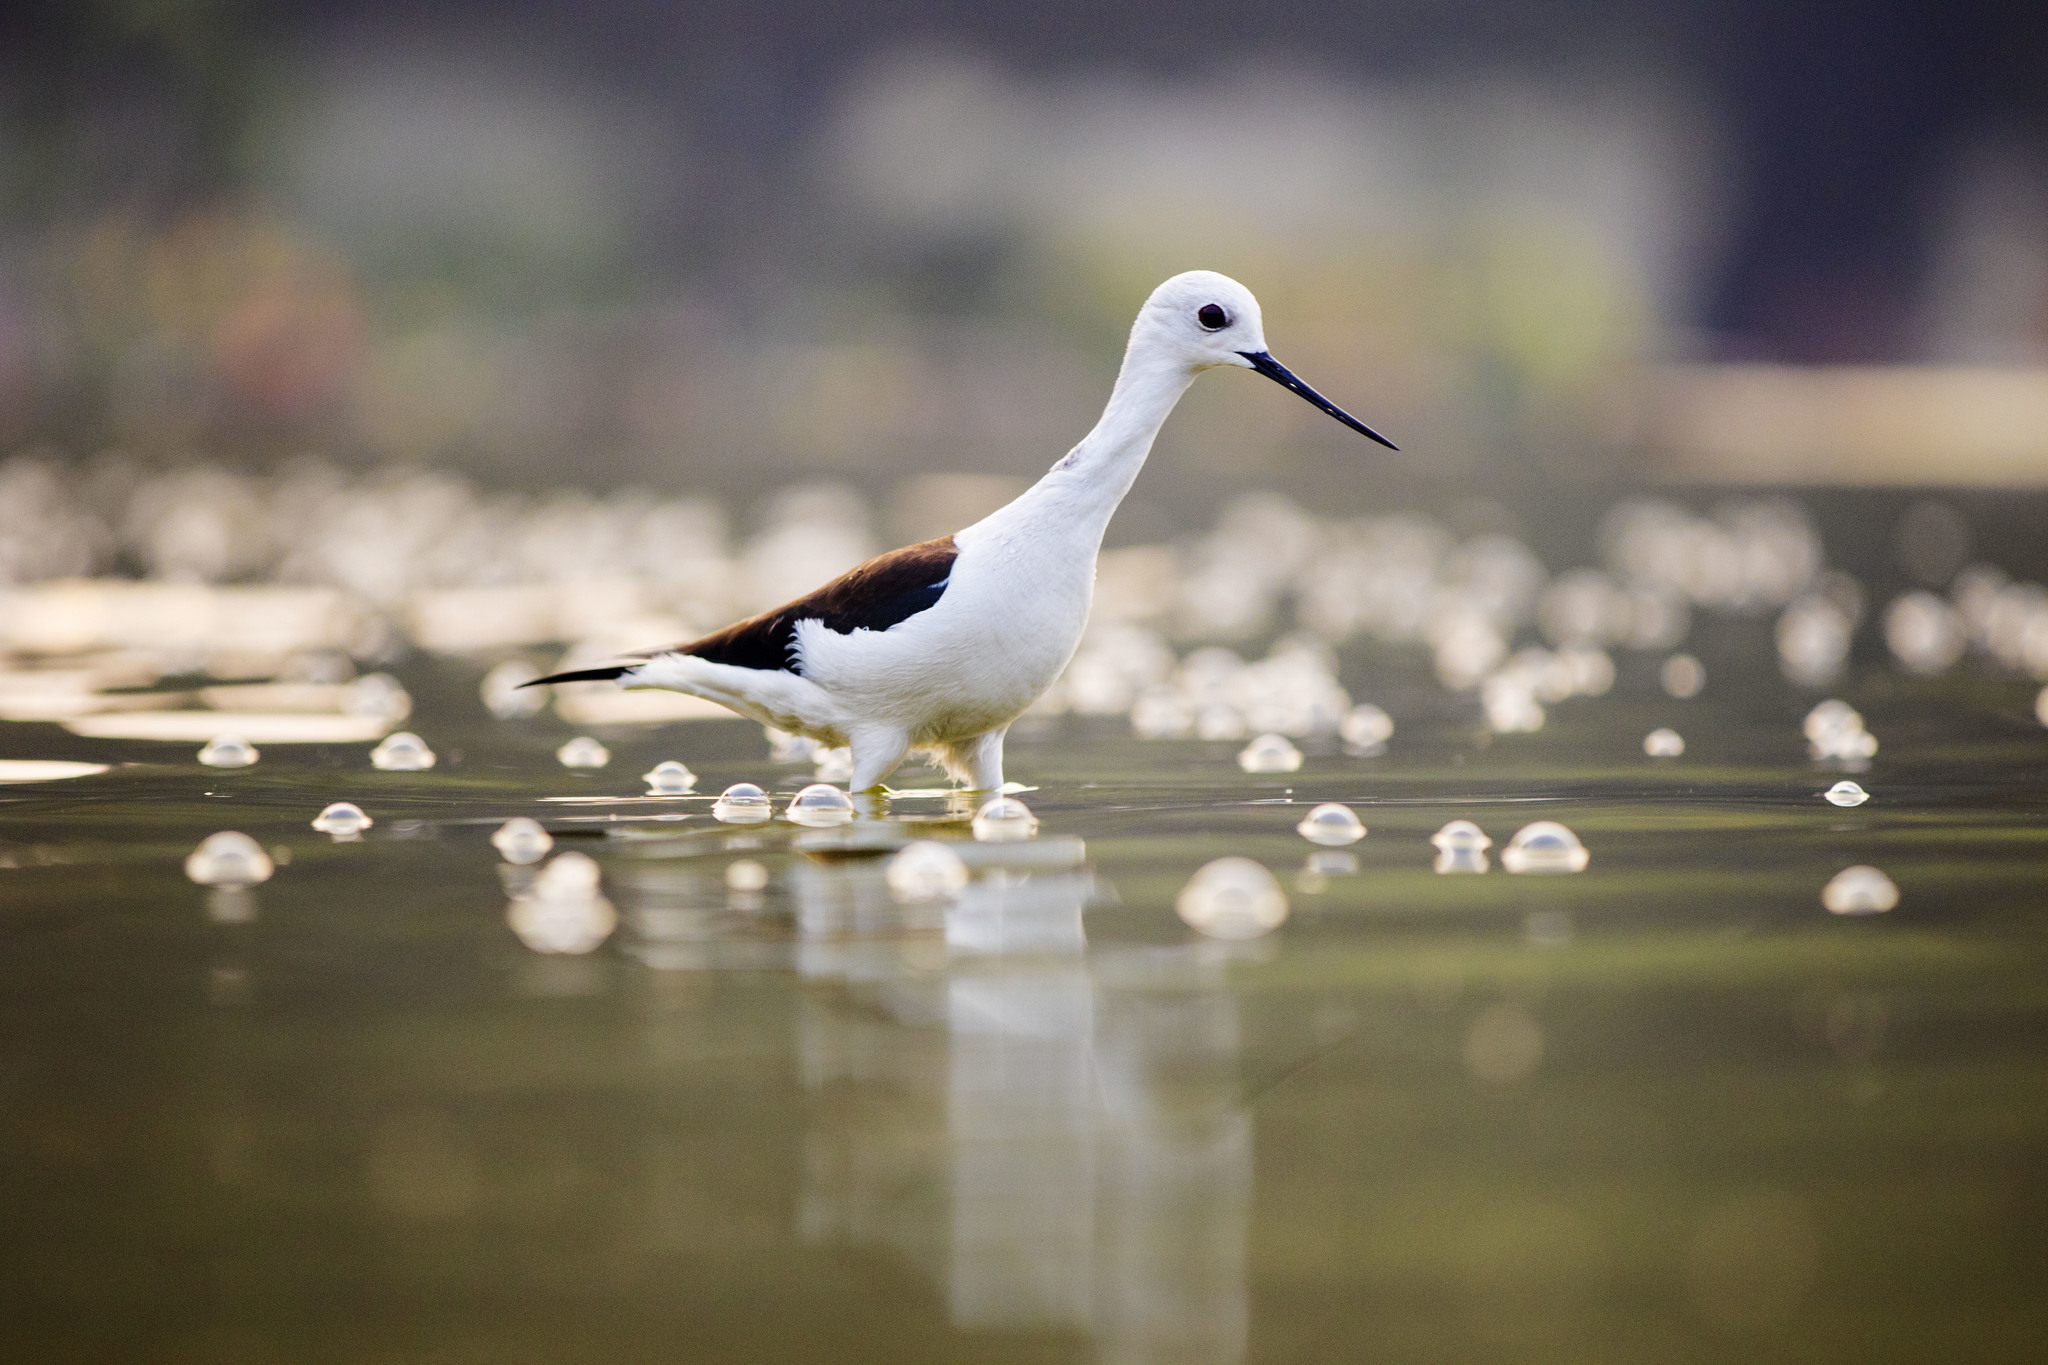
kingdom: Animalia
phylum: Chordata
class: Aves
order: Charadriiformes
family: Recurvirostridae
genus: Himantopus
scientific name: Himantopus himantopus
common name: Black-winged stilt
